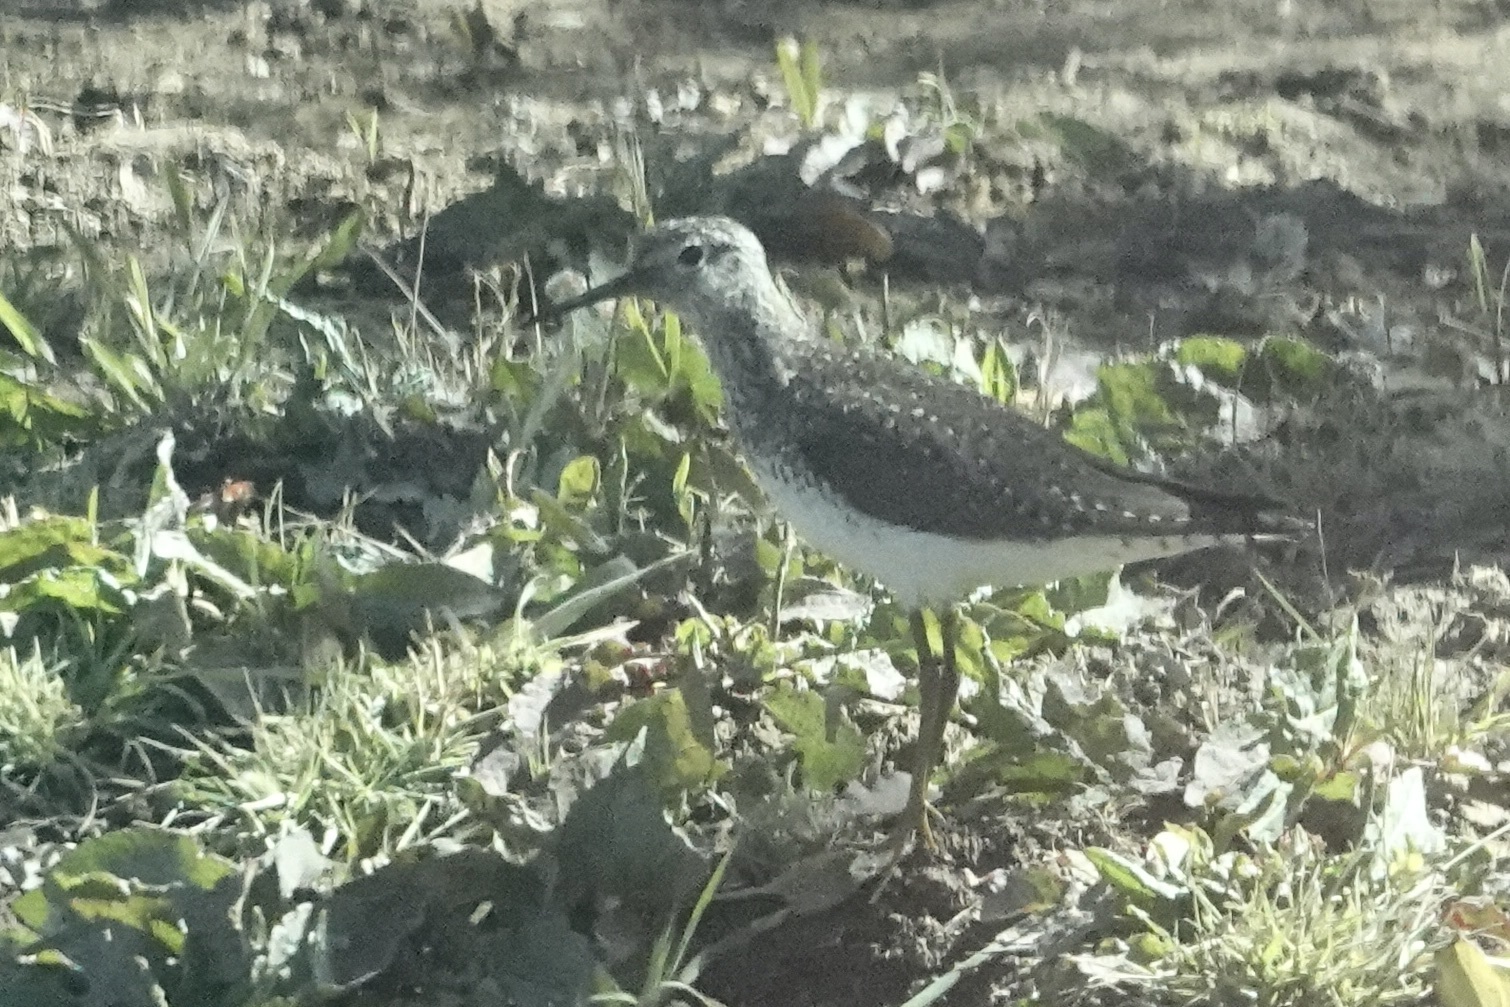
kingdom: Animalia
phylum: Chordata
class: Aves
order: Charadriiformes
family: Scolopacidae
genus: Tringa
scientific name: Tringa solitaria
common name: Solitary sandpiper
